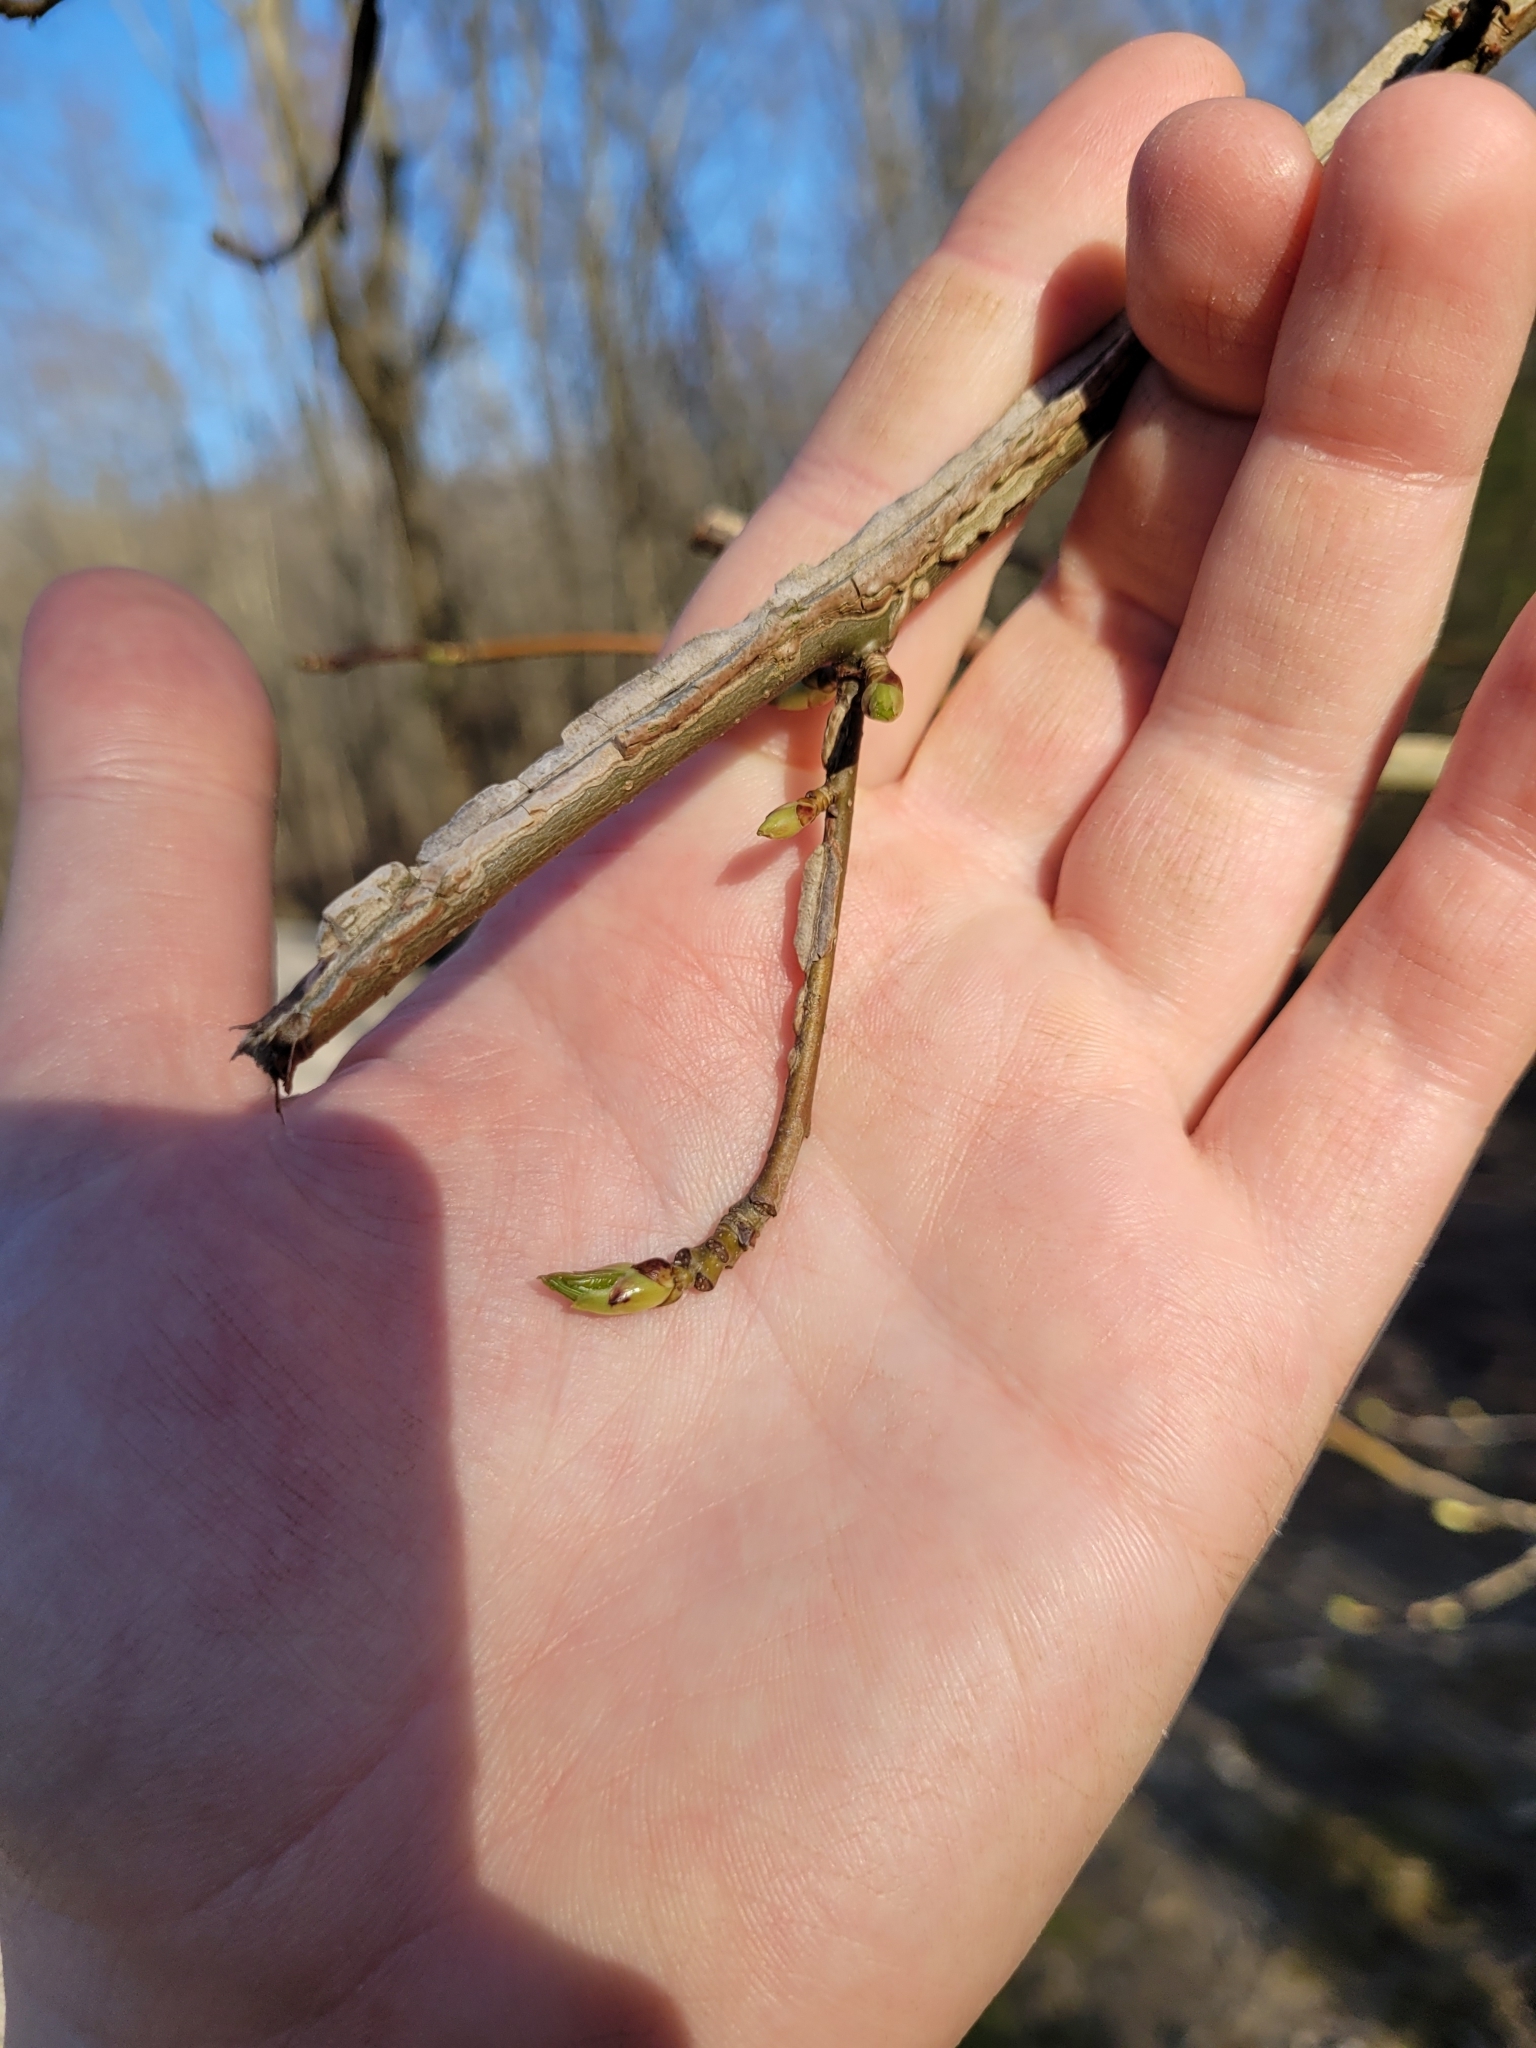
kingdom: Plantae
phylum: Tracheophyta
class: Magnoliopsida
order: Saxifragales
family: Altingiaceae
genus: Liquidambar
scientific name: Liquidambar styraciflua
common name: Sweet gum
